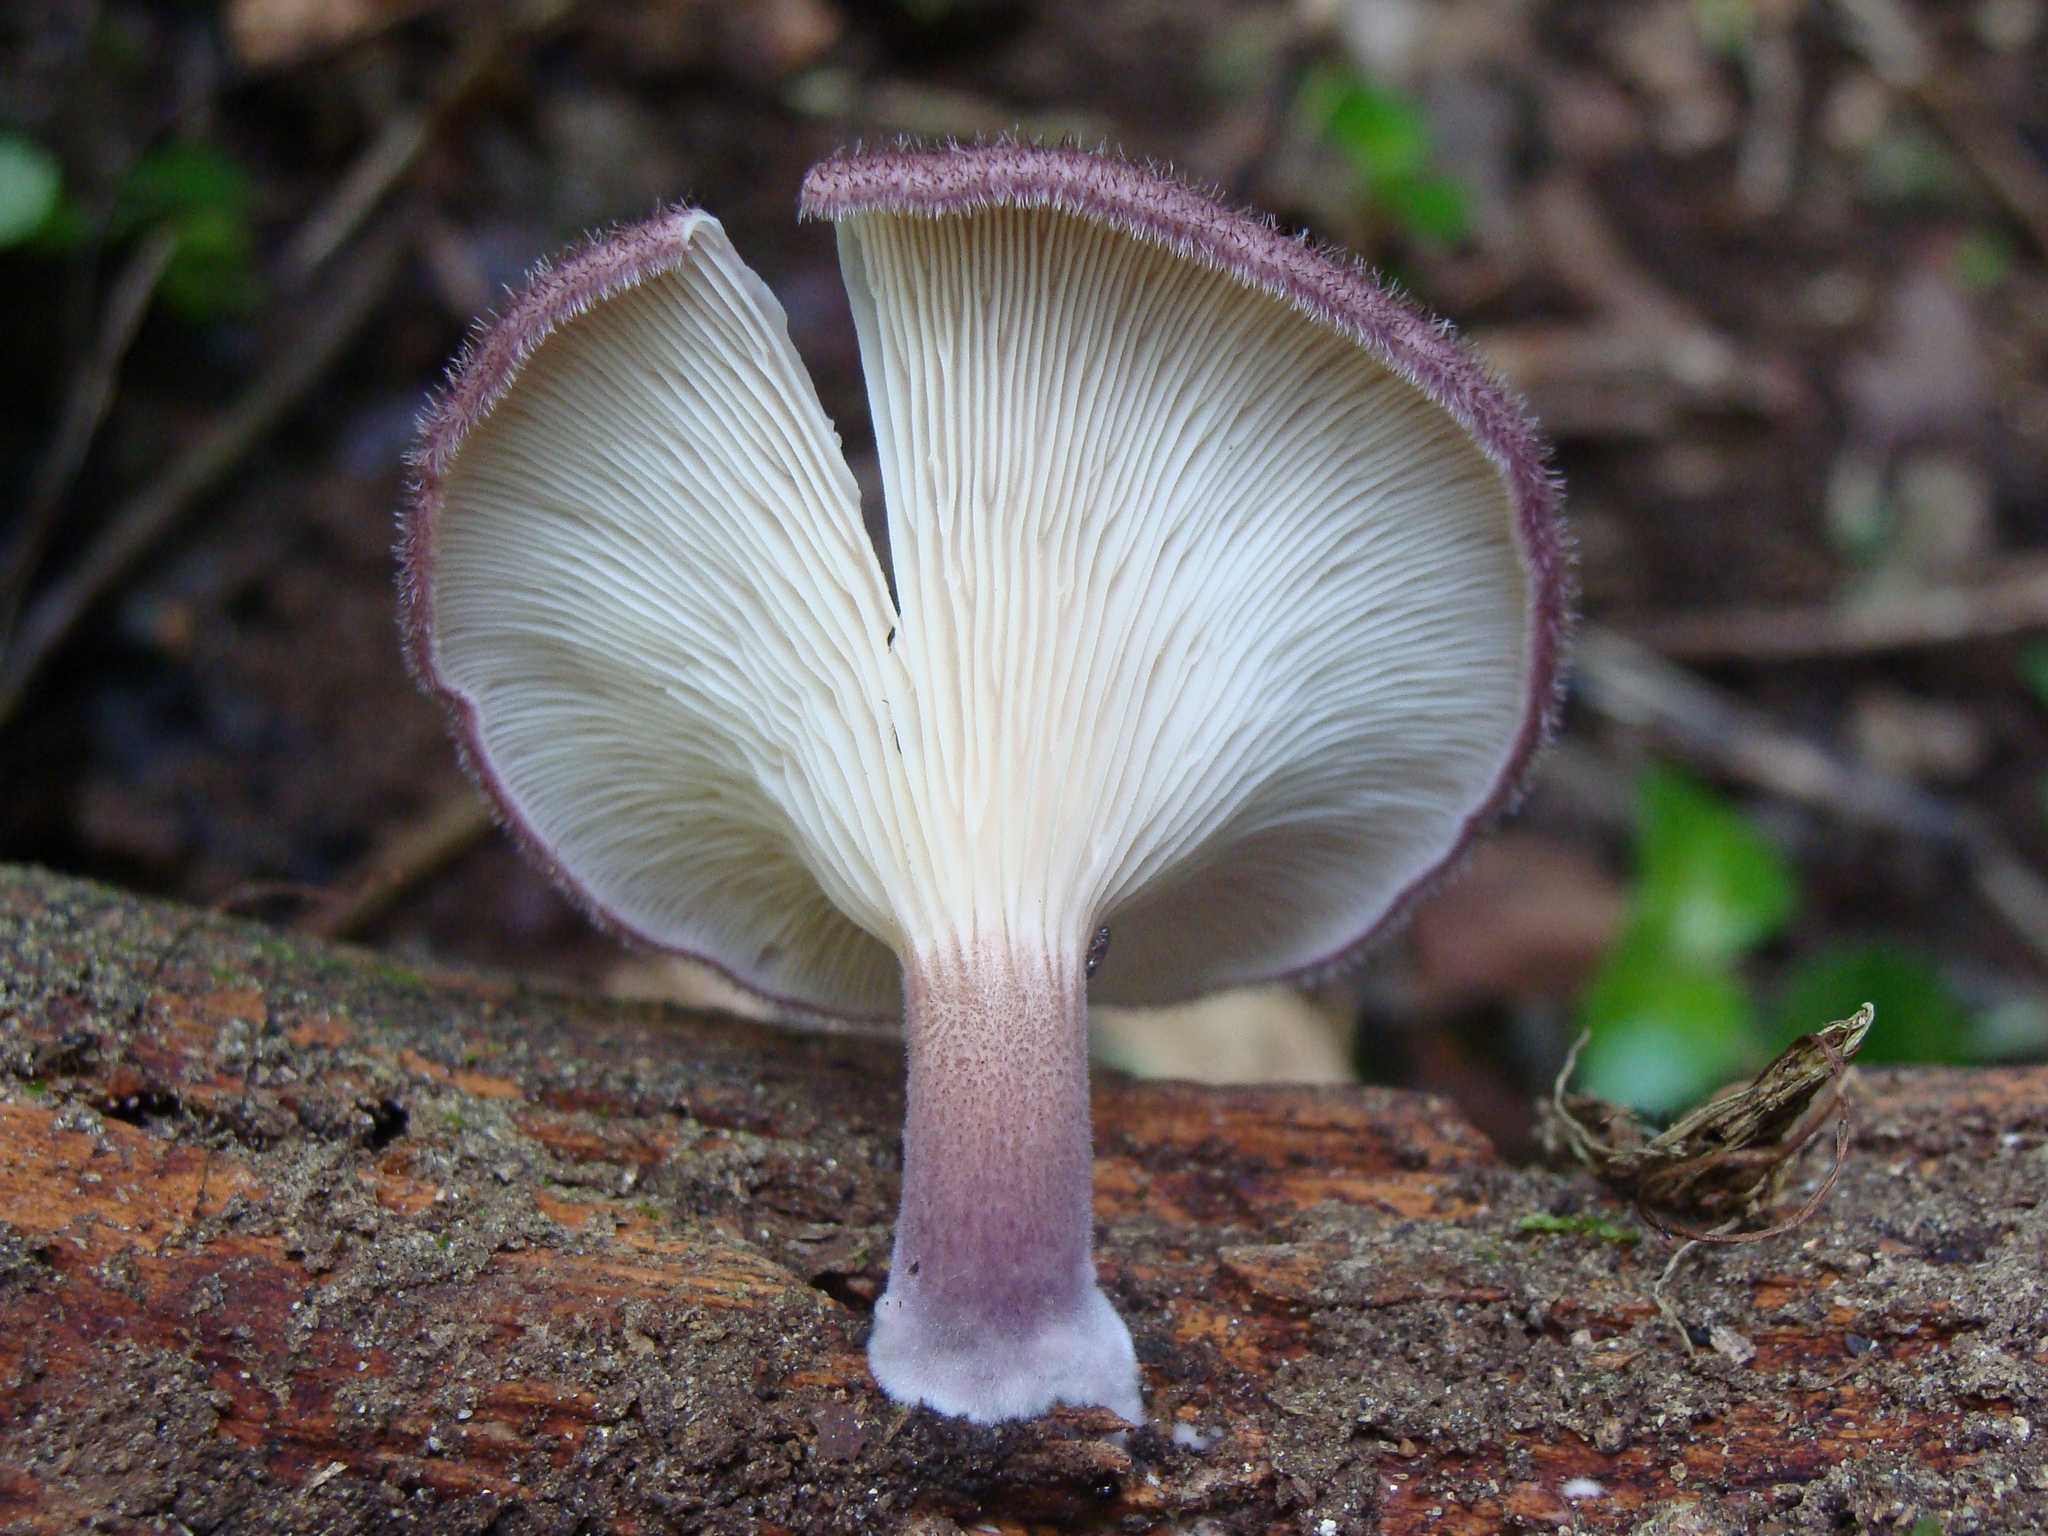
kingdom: Fungi
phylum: Basidiomycota
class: Agaricomycetes
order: Polyporales
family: Panaceae
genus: Panus
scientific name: Panus strigellus
